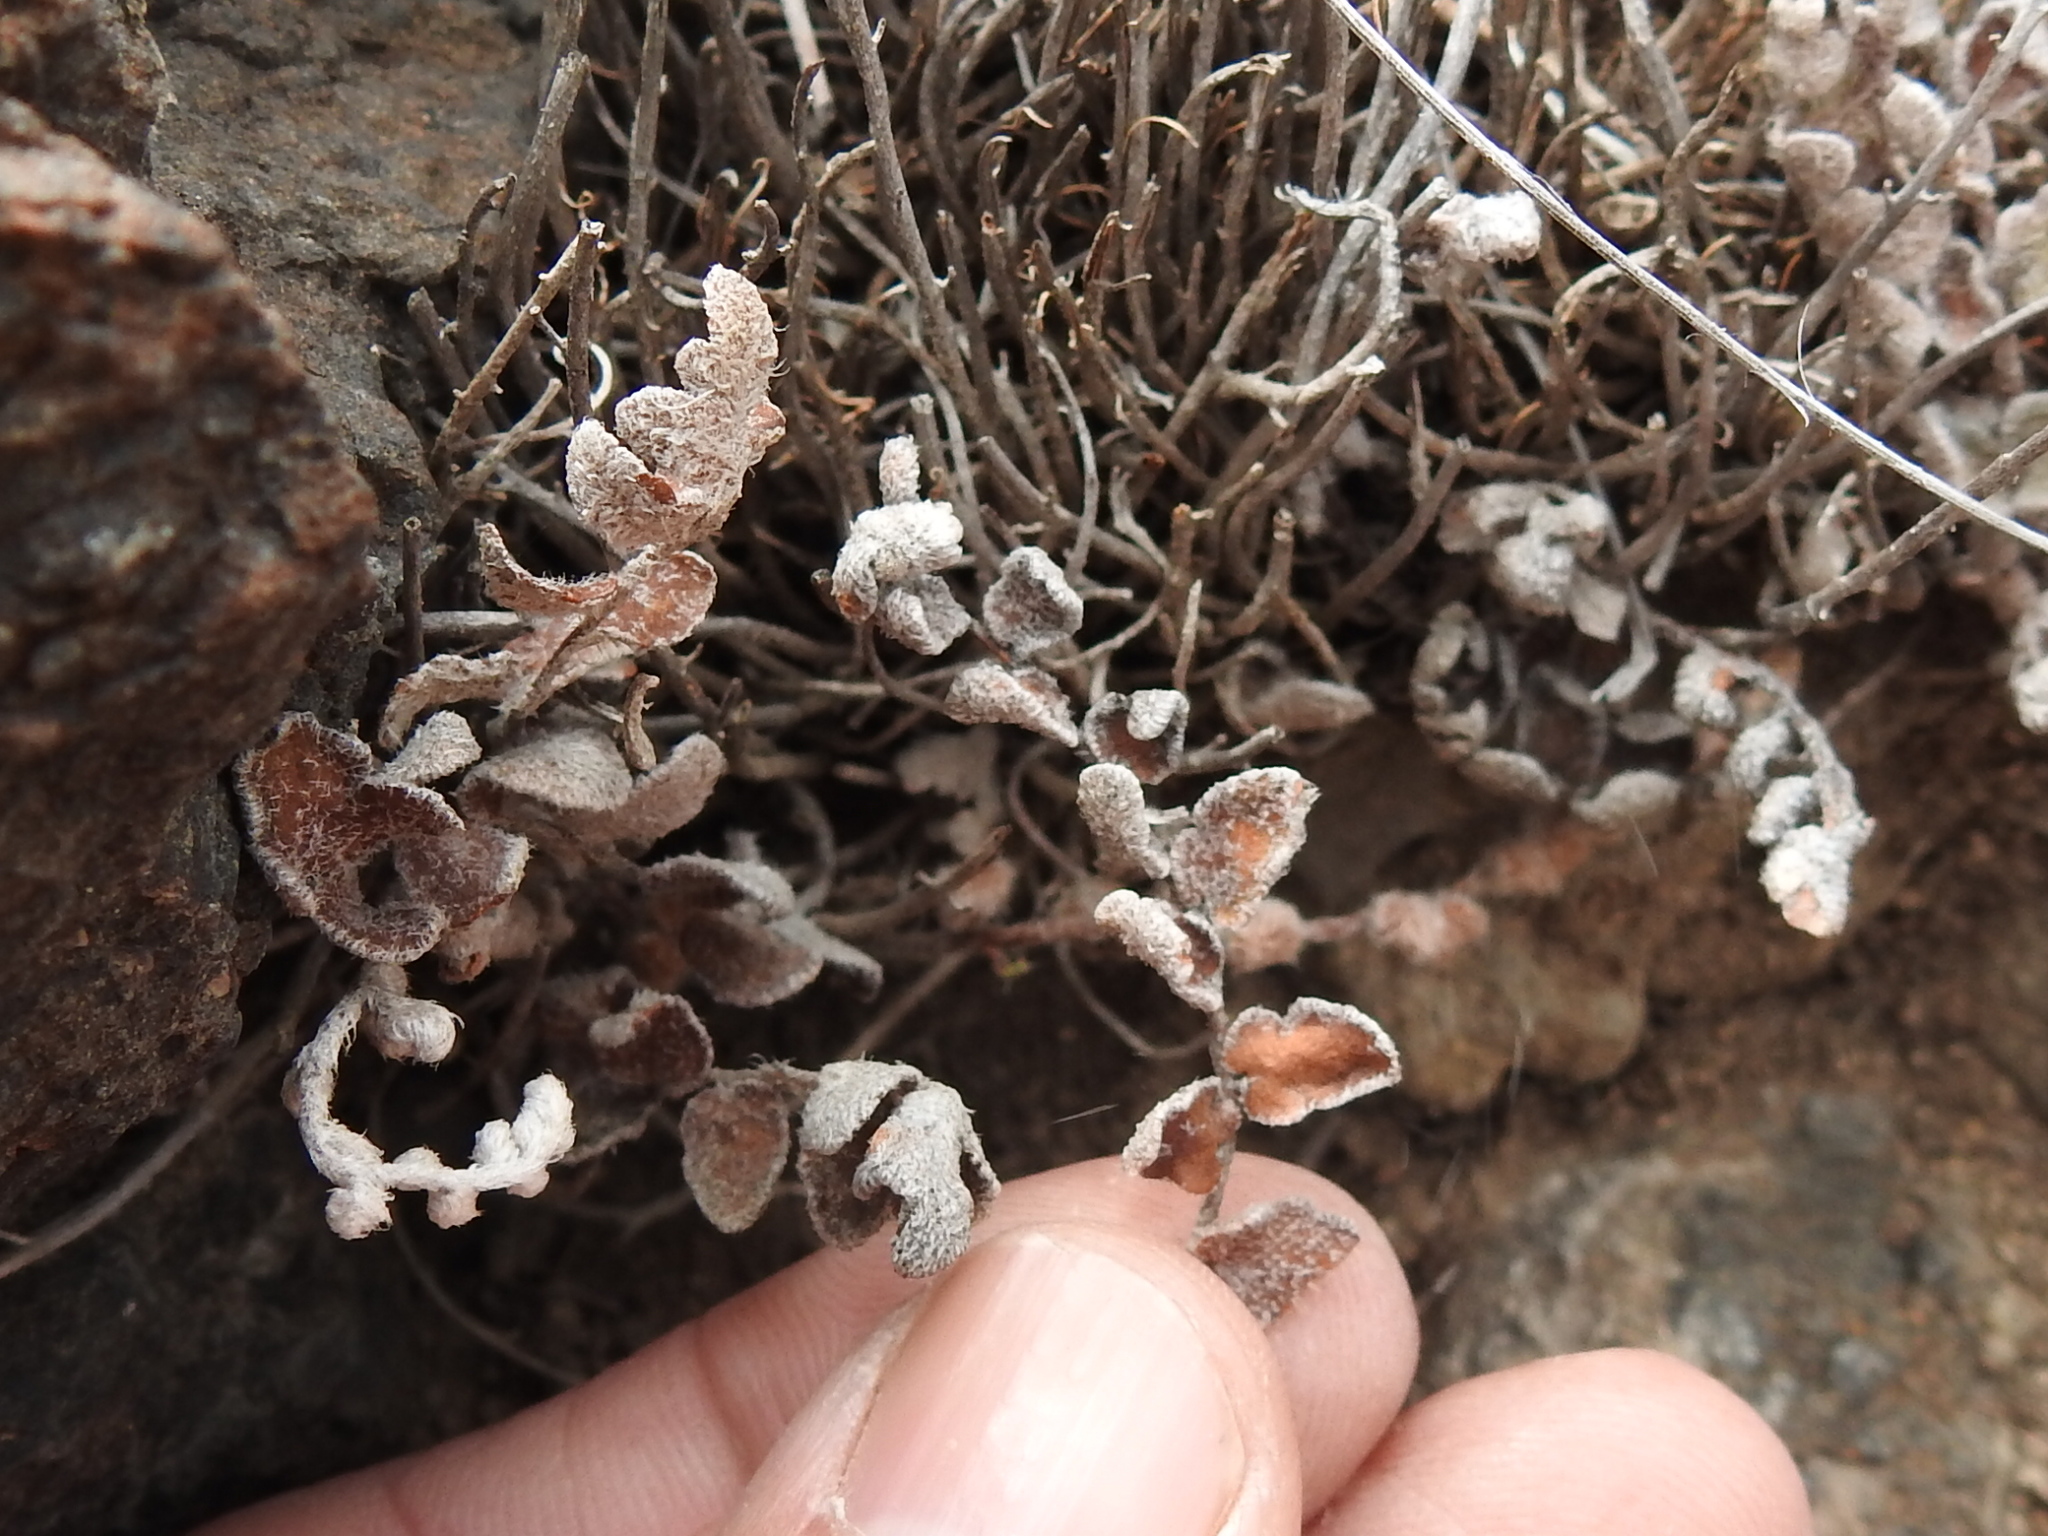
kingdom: Plantae
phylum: Tracheophyta
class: Polypodiopsida
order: Polypodiales
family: Pteridaceae
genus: Astrolepis
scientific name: Astrolepis cochisensis
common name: Scaly cloak fern
